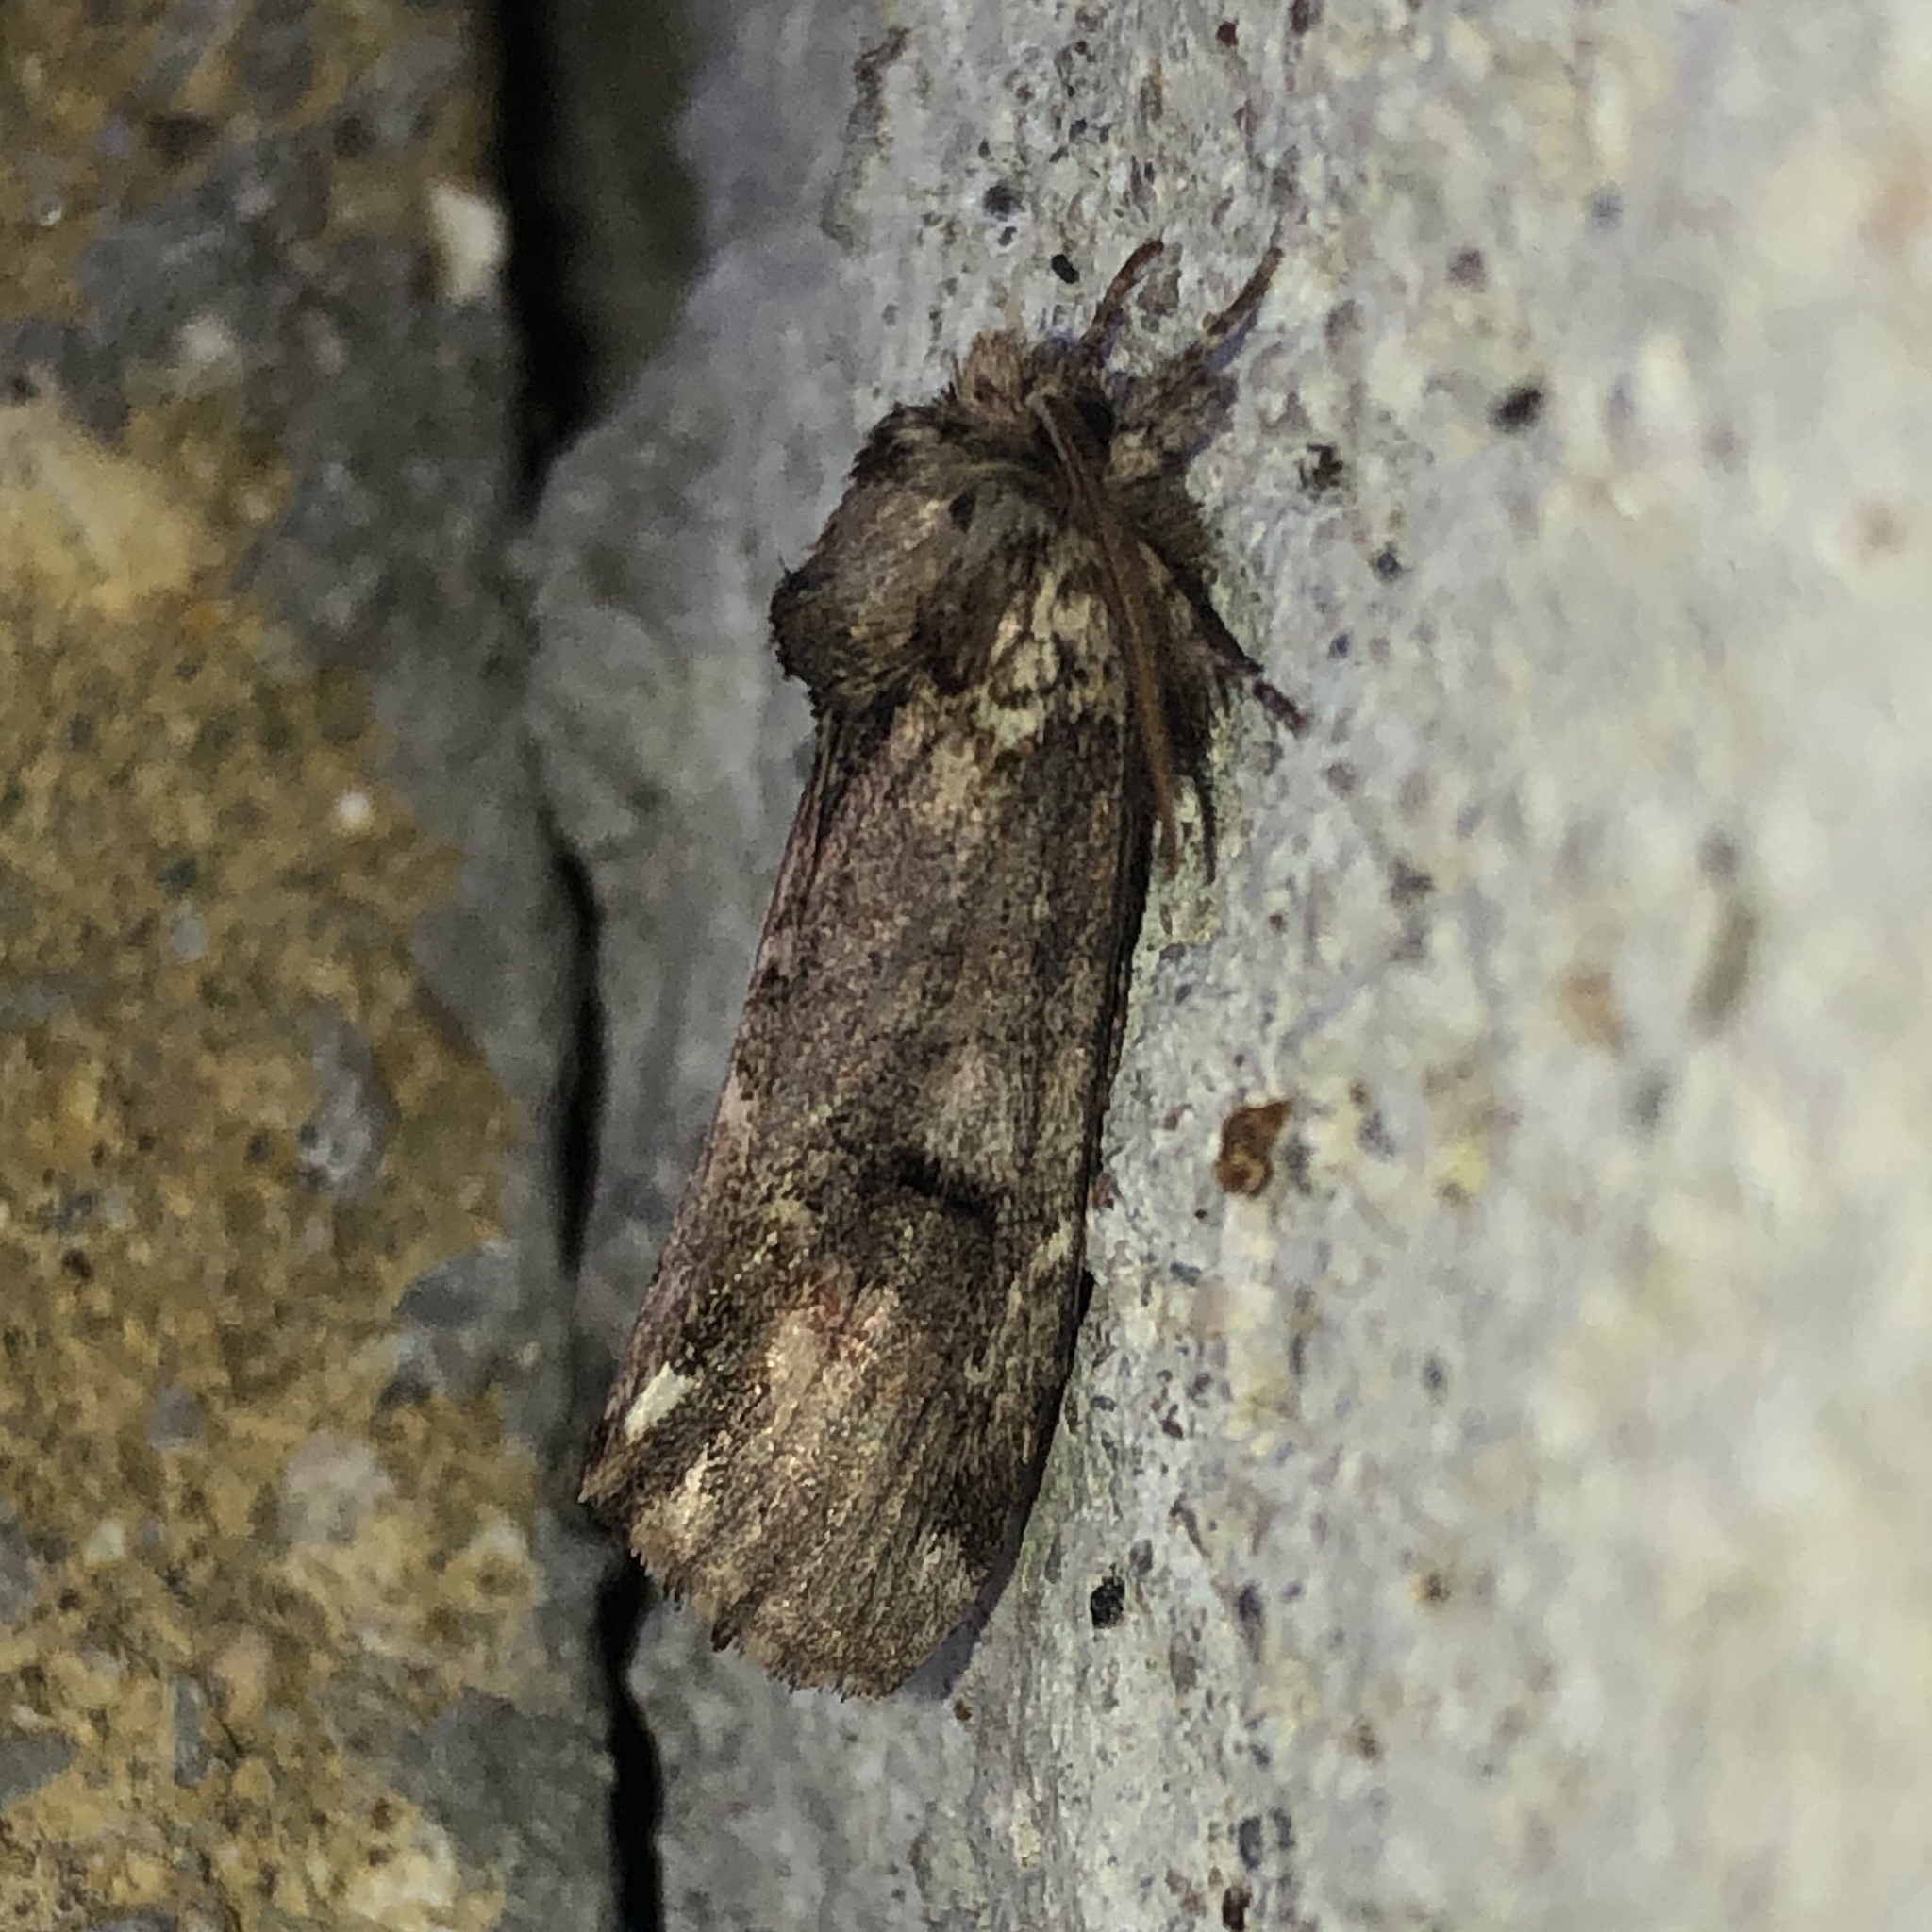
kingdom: Animalia
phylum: Arthropoda
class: Insecta
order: Lepidoptera
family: Notodontidae
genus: Schizura
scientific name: Schizura
